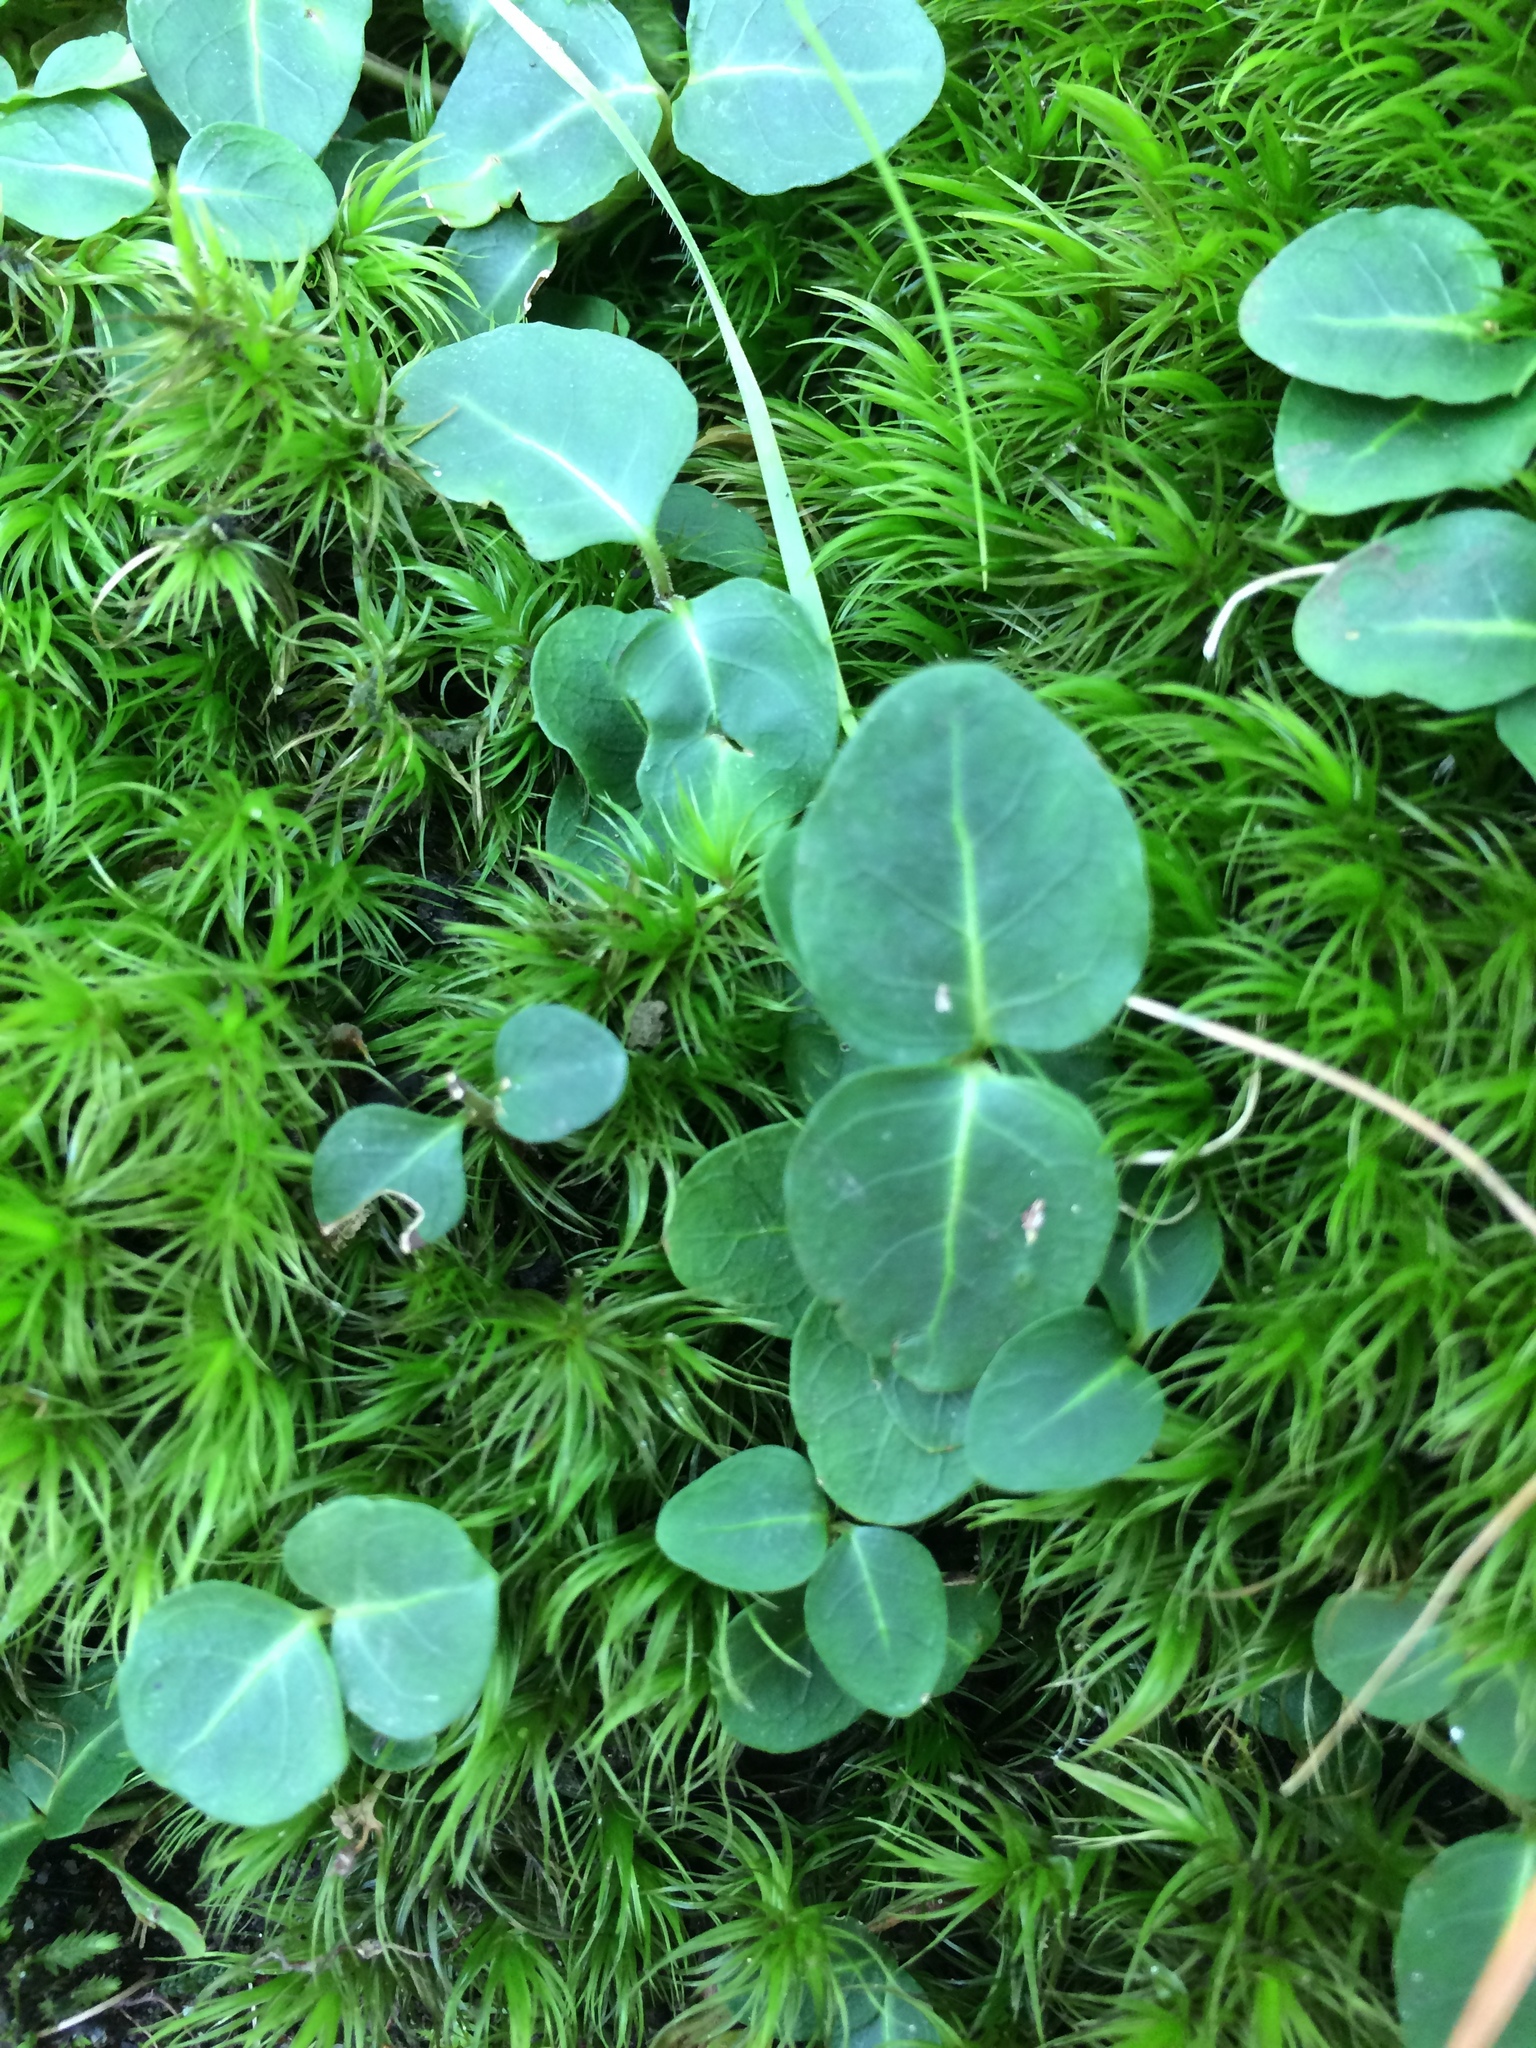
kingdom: Plantae
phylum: Tracheophyta
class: Magnoliopsida
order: Gentianales
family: Rubiaceae
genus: Mitchella
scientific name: Mitchella repens
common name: Partridge-berry
